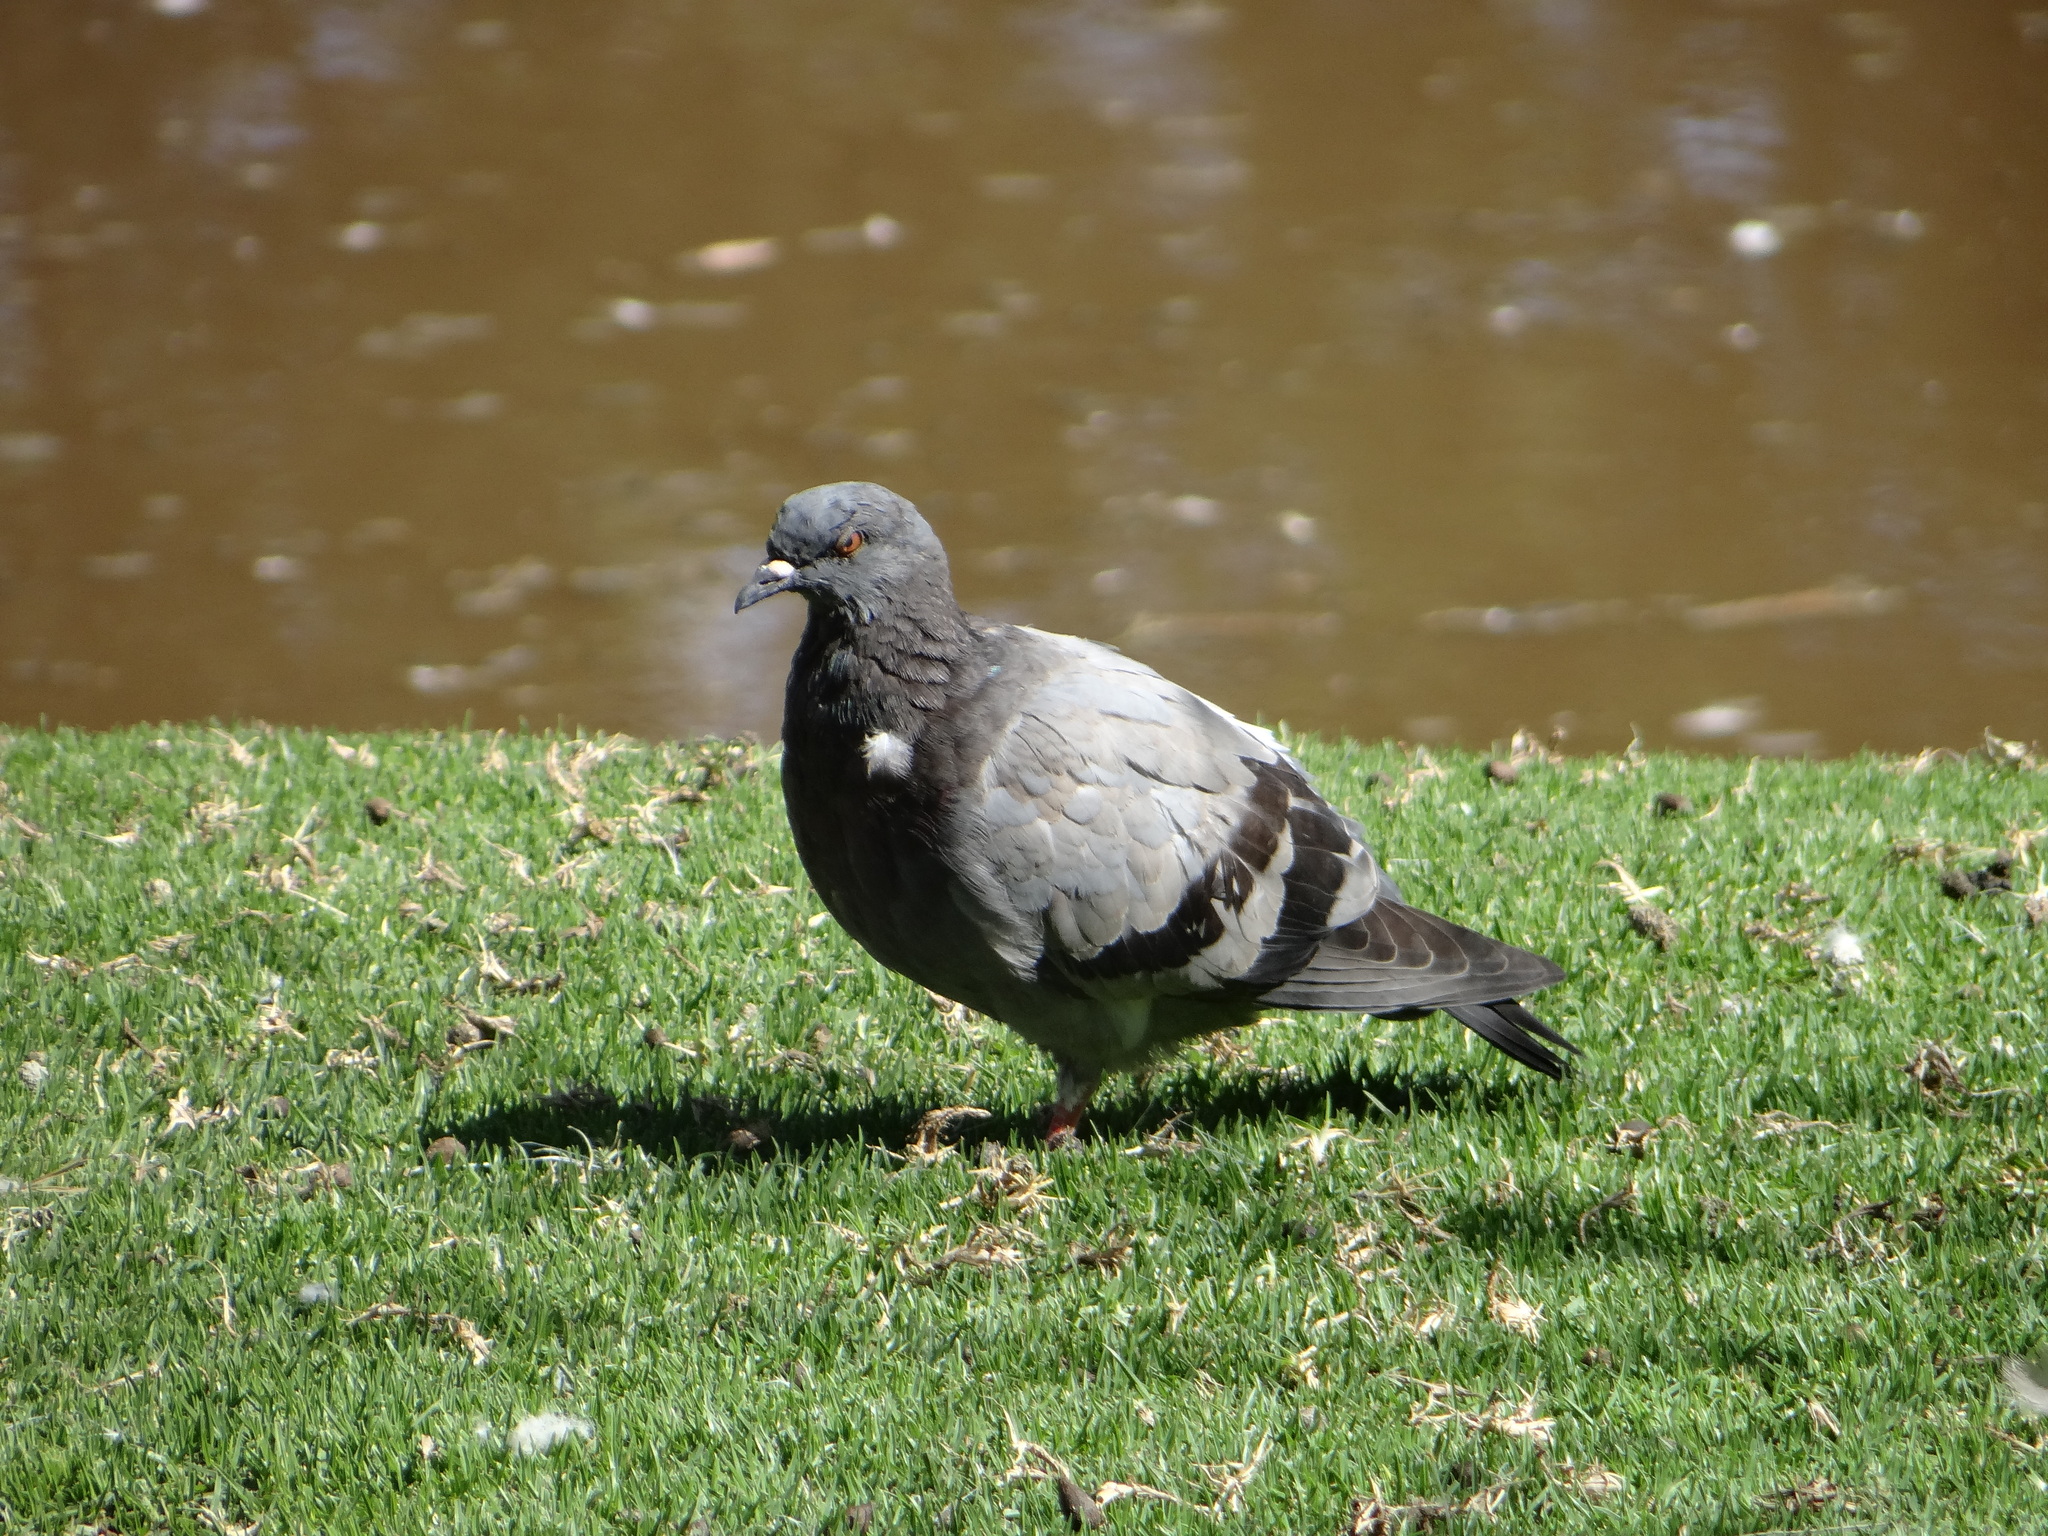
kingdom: Animalia
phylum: Chordata
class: Aves
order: Columbiformes
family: Columbidae
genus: Columba
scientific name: Columba livia
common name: Rock pigeon
